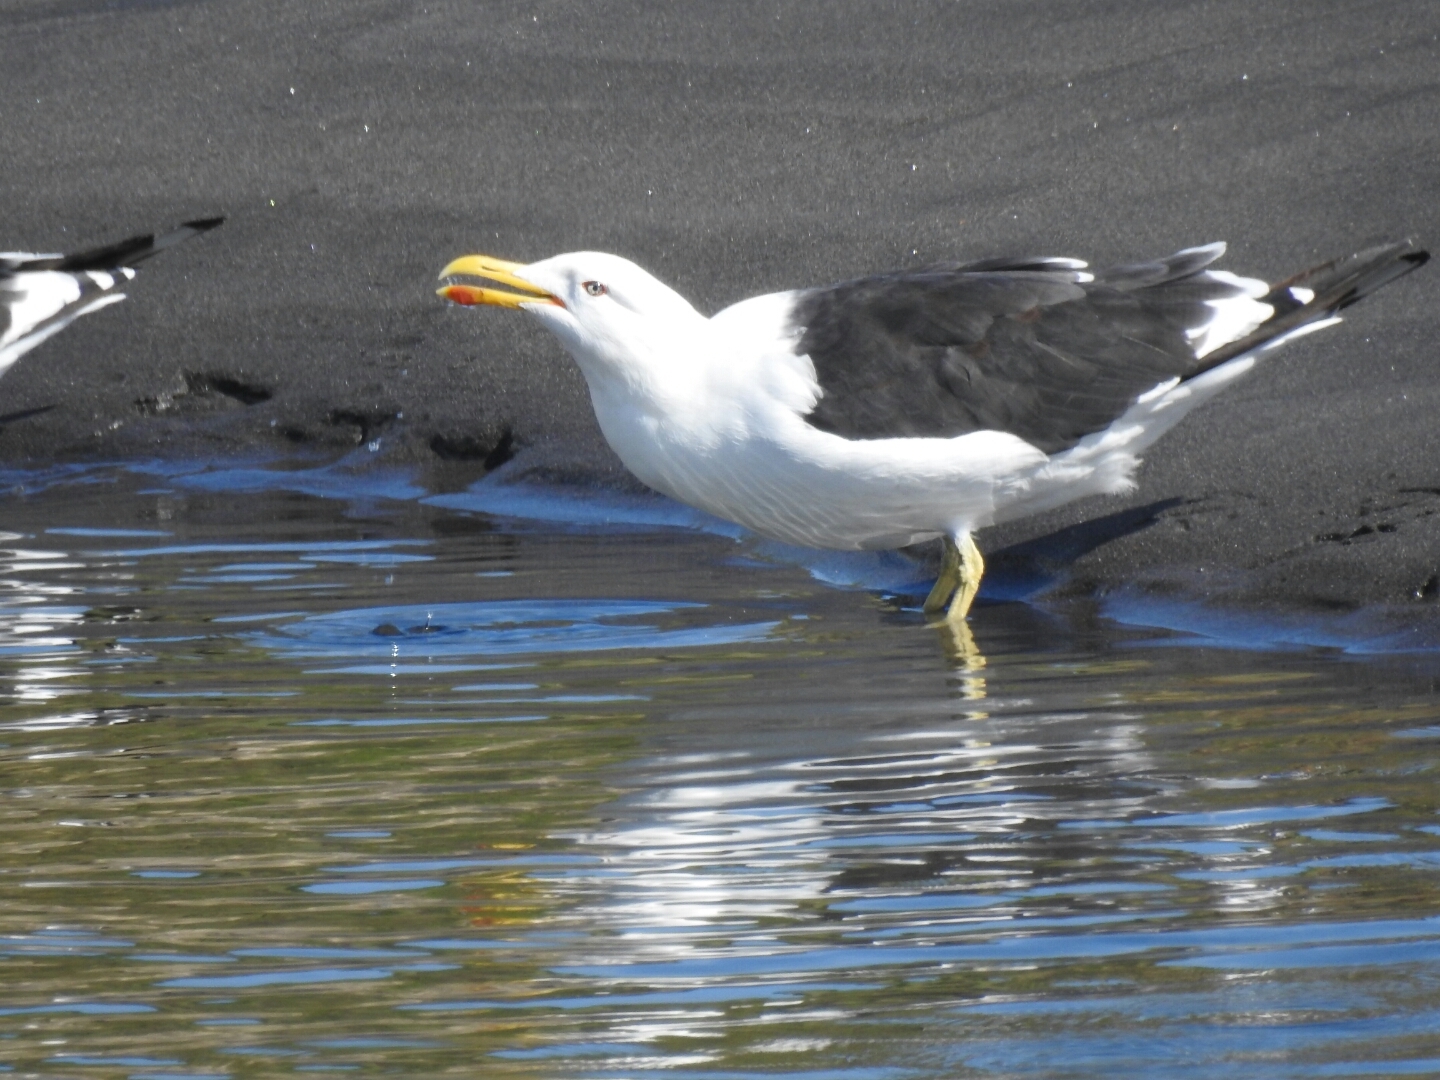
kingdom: Animalia
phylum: Chordata
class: Aves
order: Charadriiformes
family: Laridae
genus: Larus
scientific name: Larus dominicanus
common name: Kelp gull
